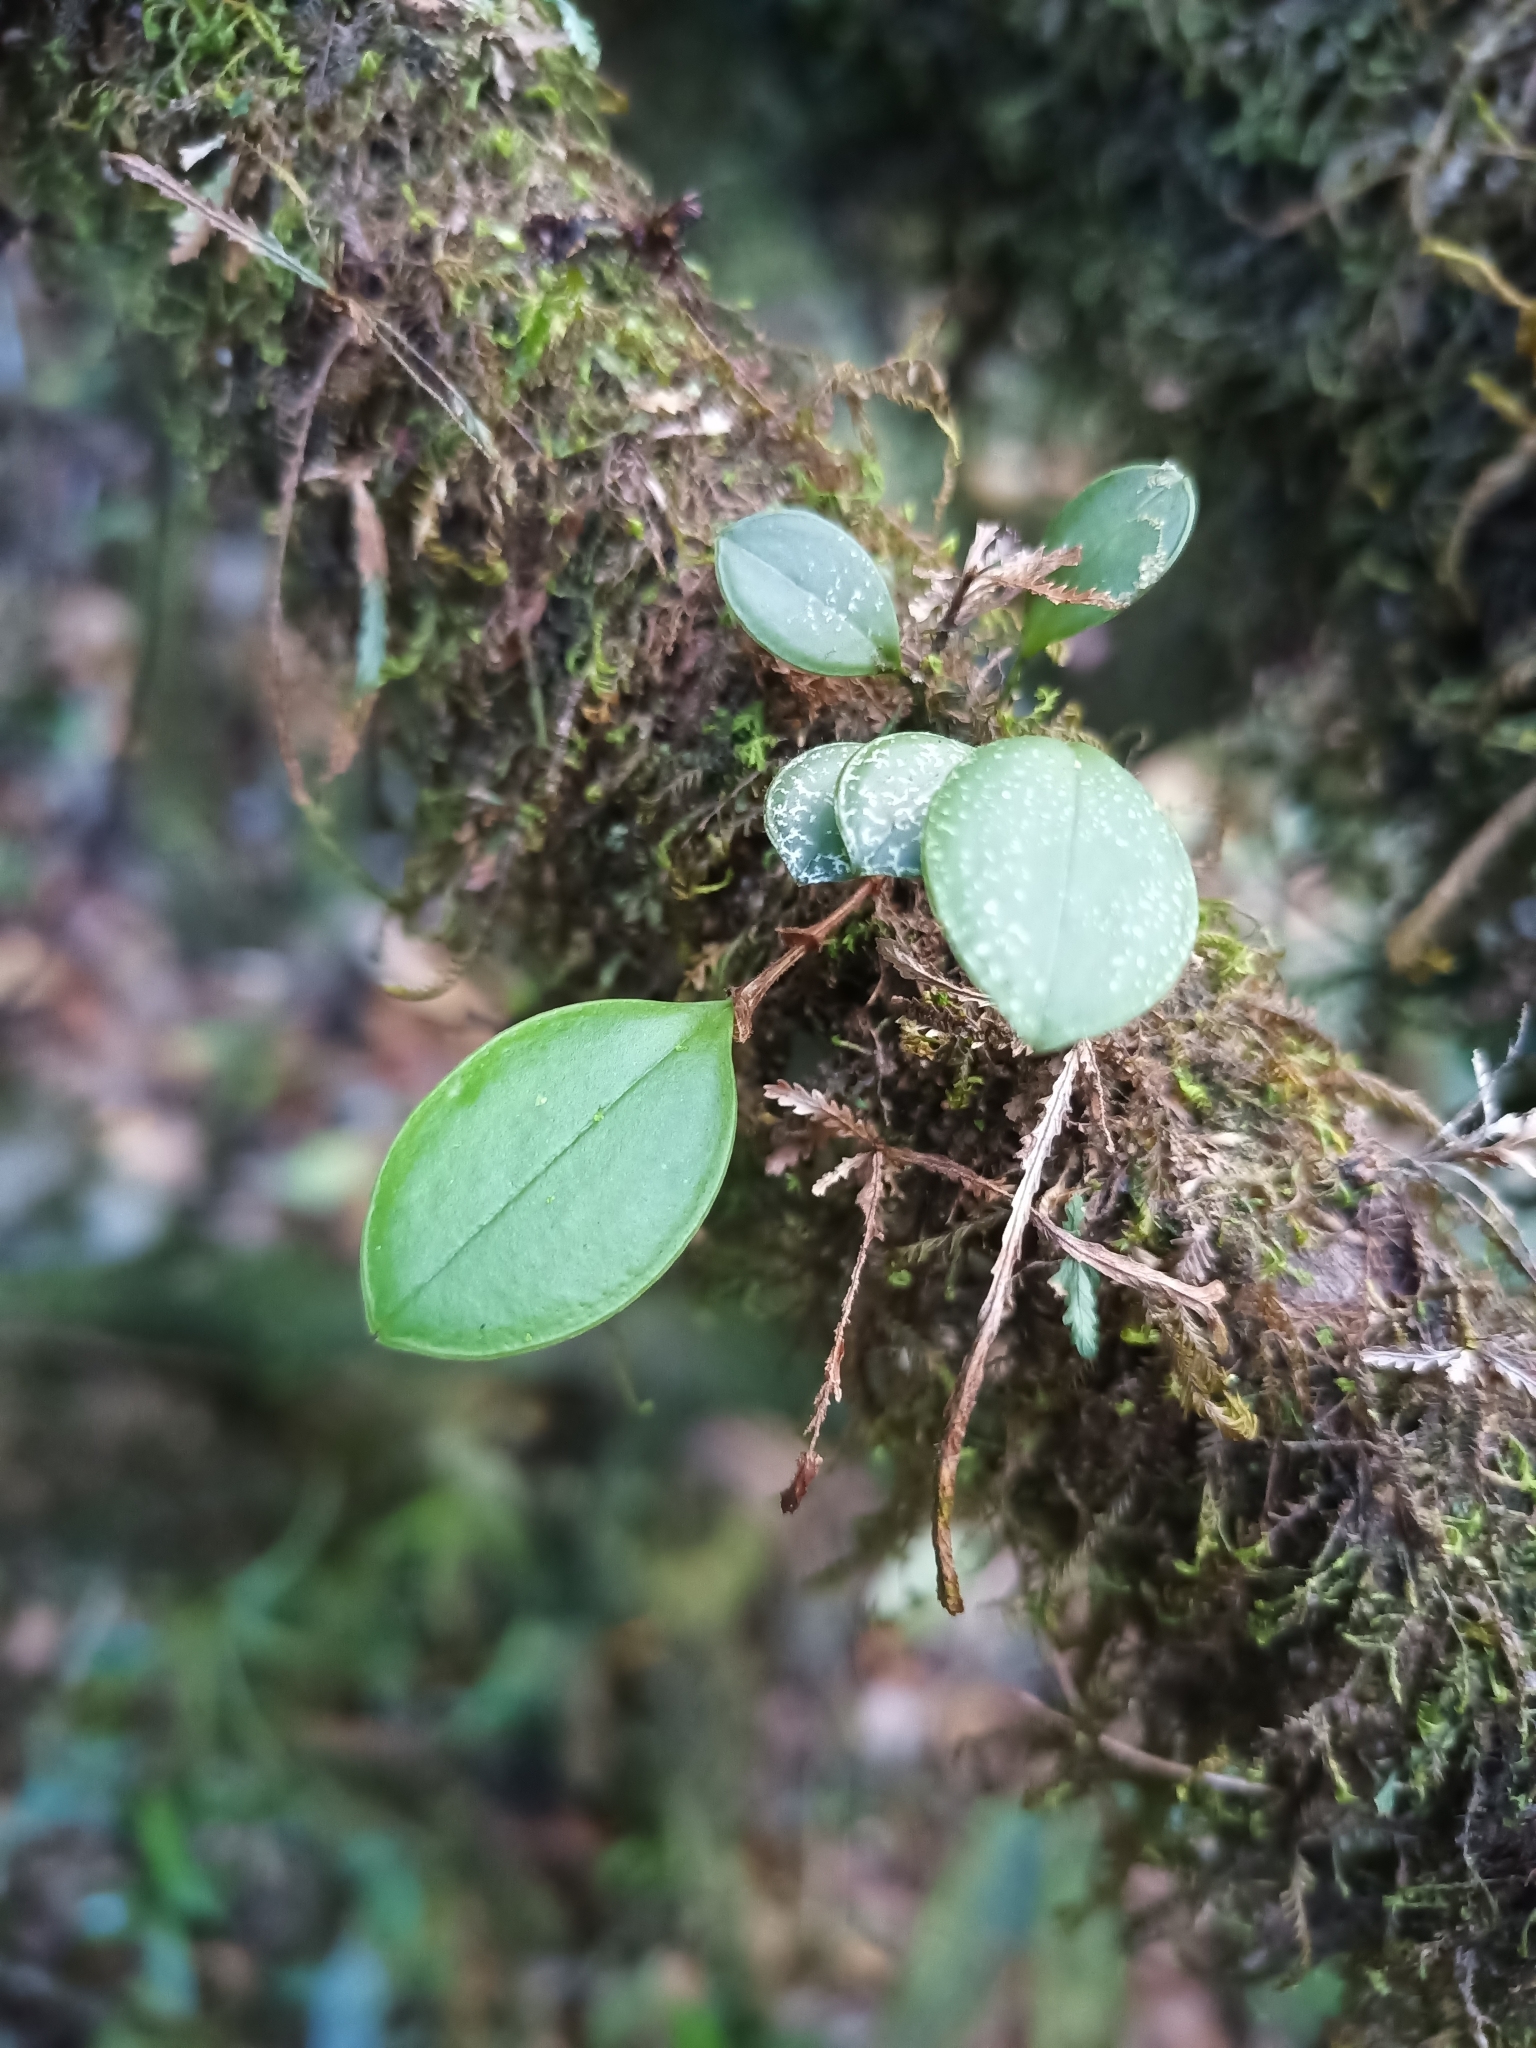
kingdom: Plantae
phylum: Tracheophyta
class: Liliopsida
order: Asparagales
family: Orchidaceae
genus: Trichosalpinx
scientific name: Trichosalpinx orbicularis
